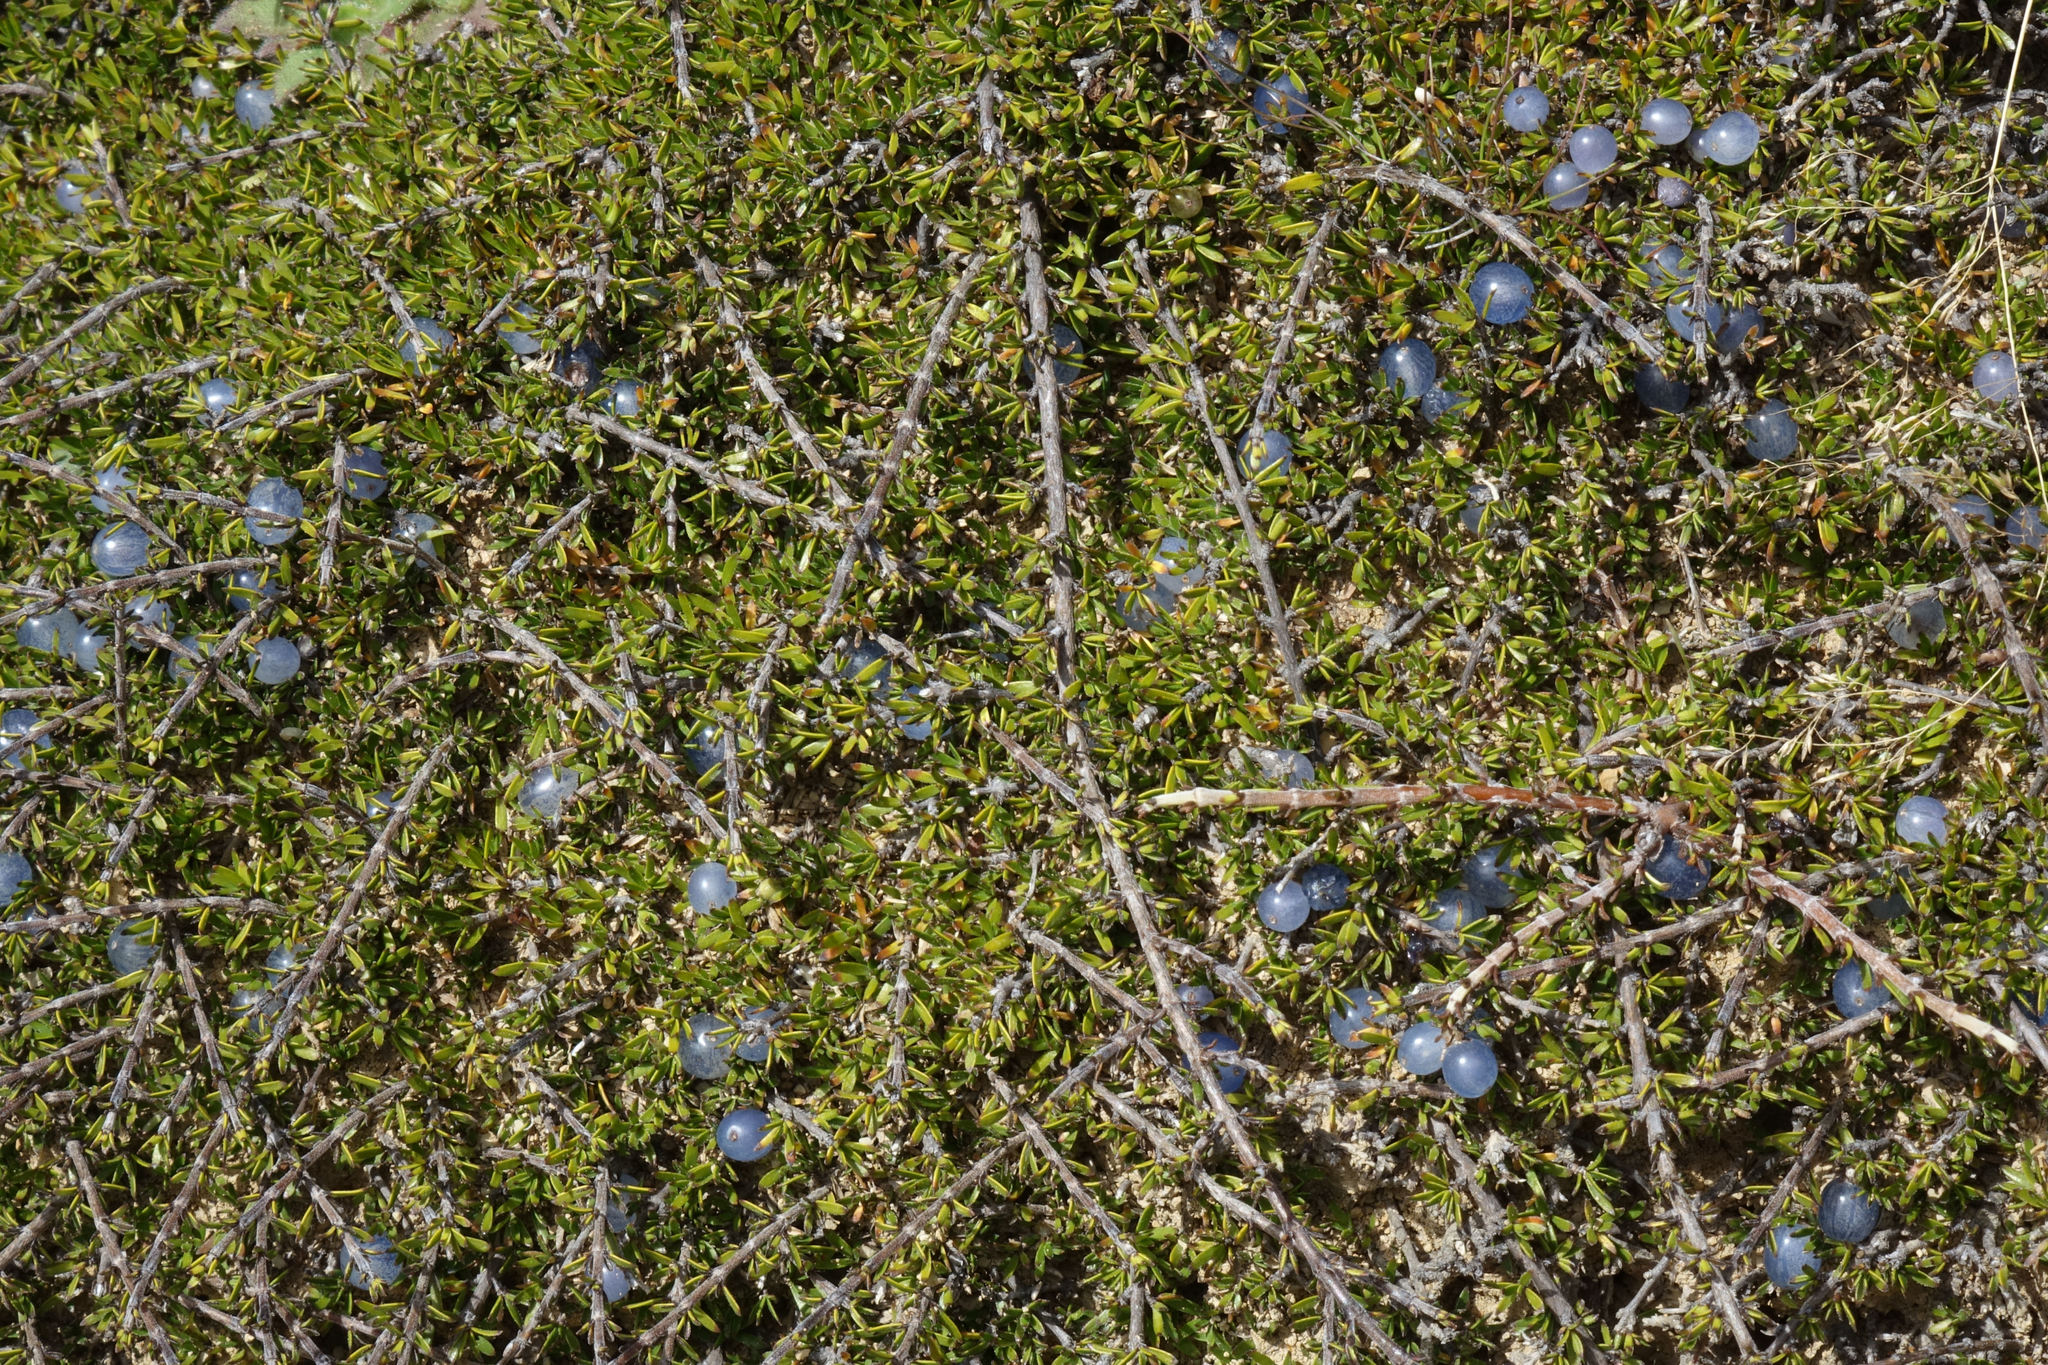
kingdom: Plantae
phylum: Tracheophyta
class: Magnoliopsida
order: Gentianales
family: Rubiaceae
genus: Coprosma
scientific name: Coprosma petriei
